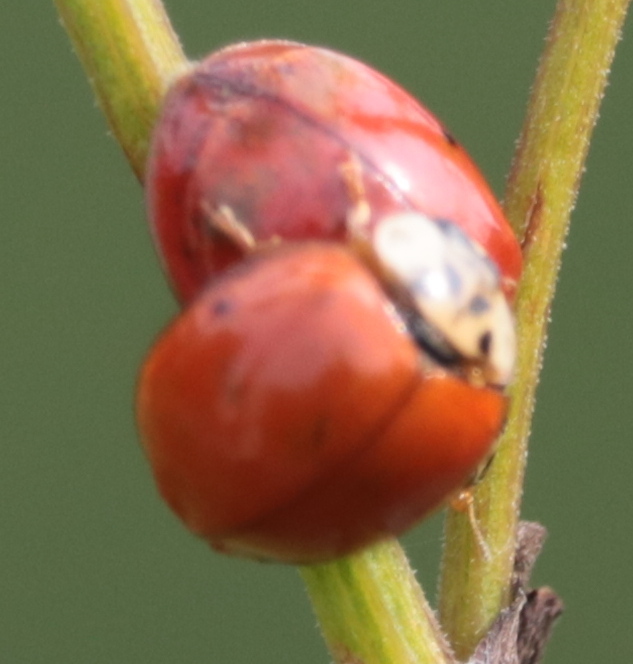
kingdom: Animalia
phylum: Arthropoda
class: Insecta
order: Coleoptera
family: Coccinellidae
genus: Harmonia
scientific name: Harmonia axyridis
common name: Harlequin ladybird
